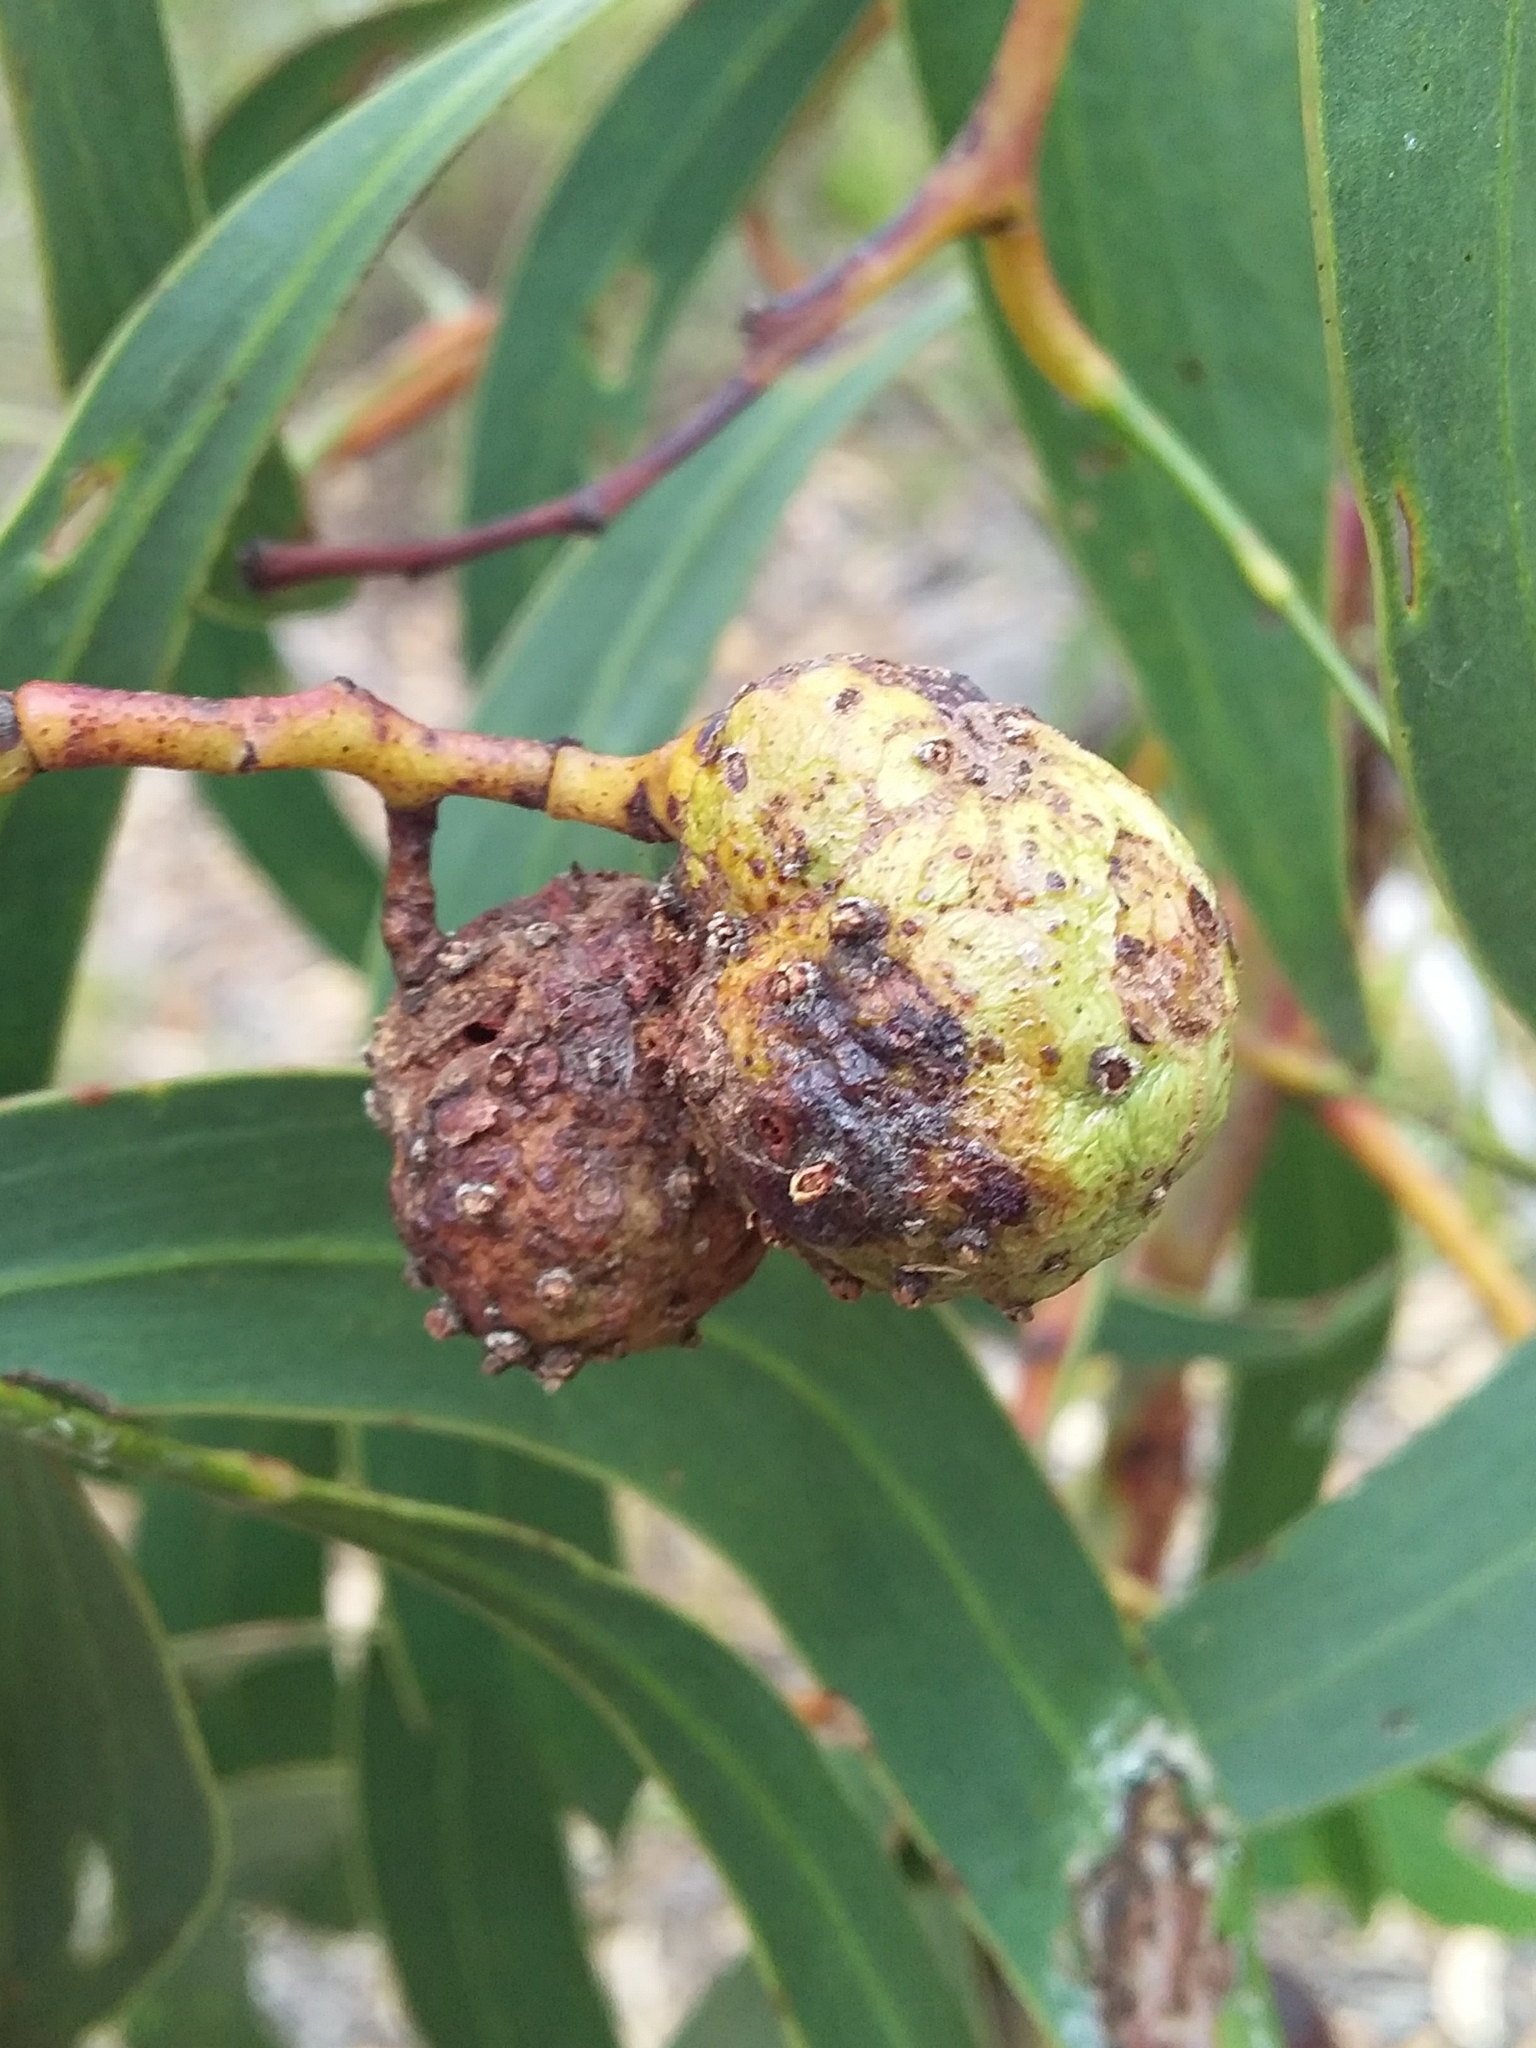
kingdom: Animalia
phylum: Arthropoda
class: Insecta
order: Hymenoptera
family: Pteromalidae
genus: Trichilogaster
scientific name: Trichilogaster signiventris
